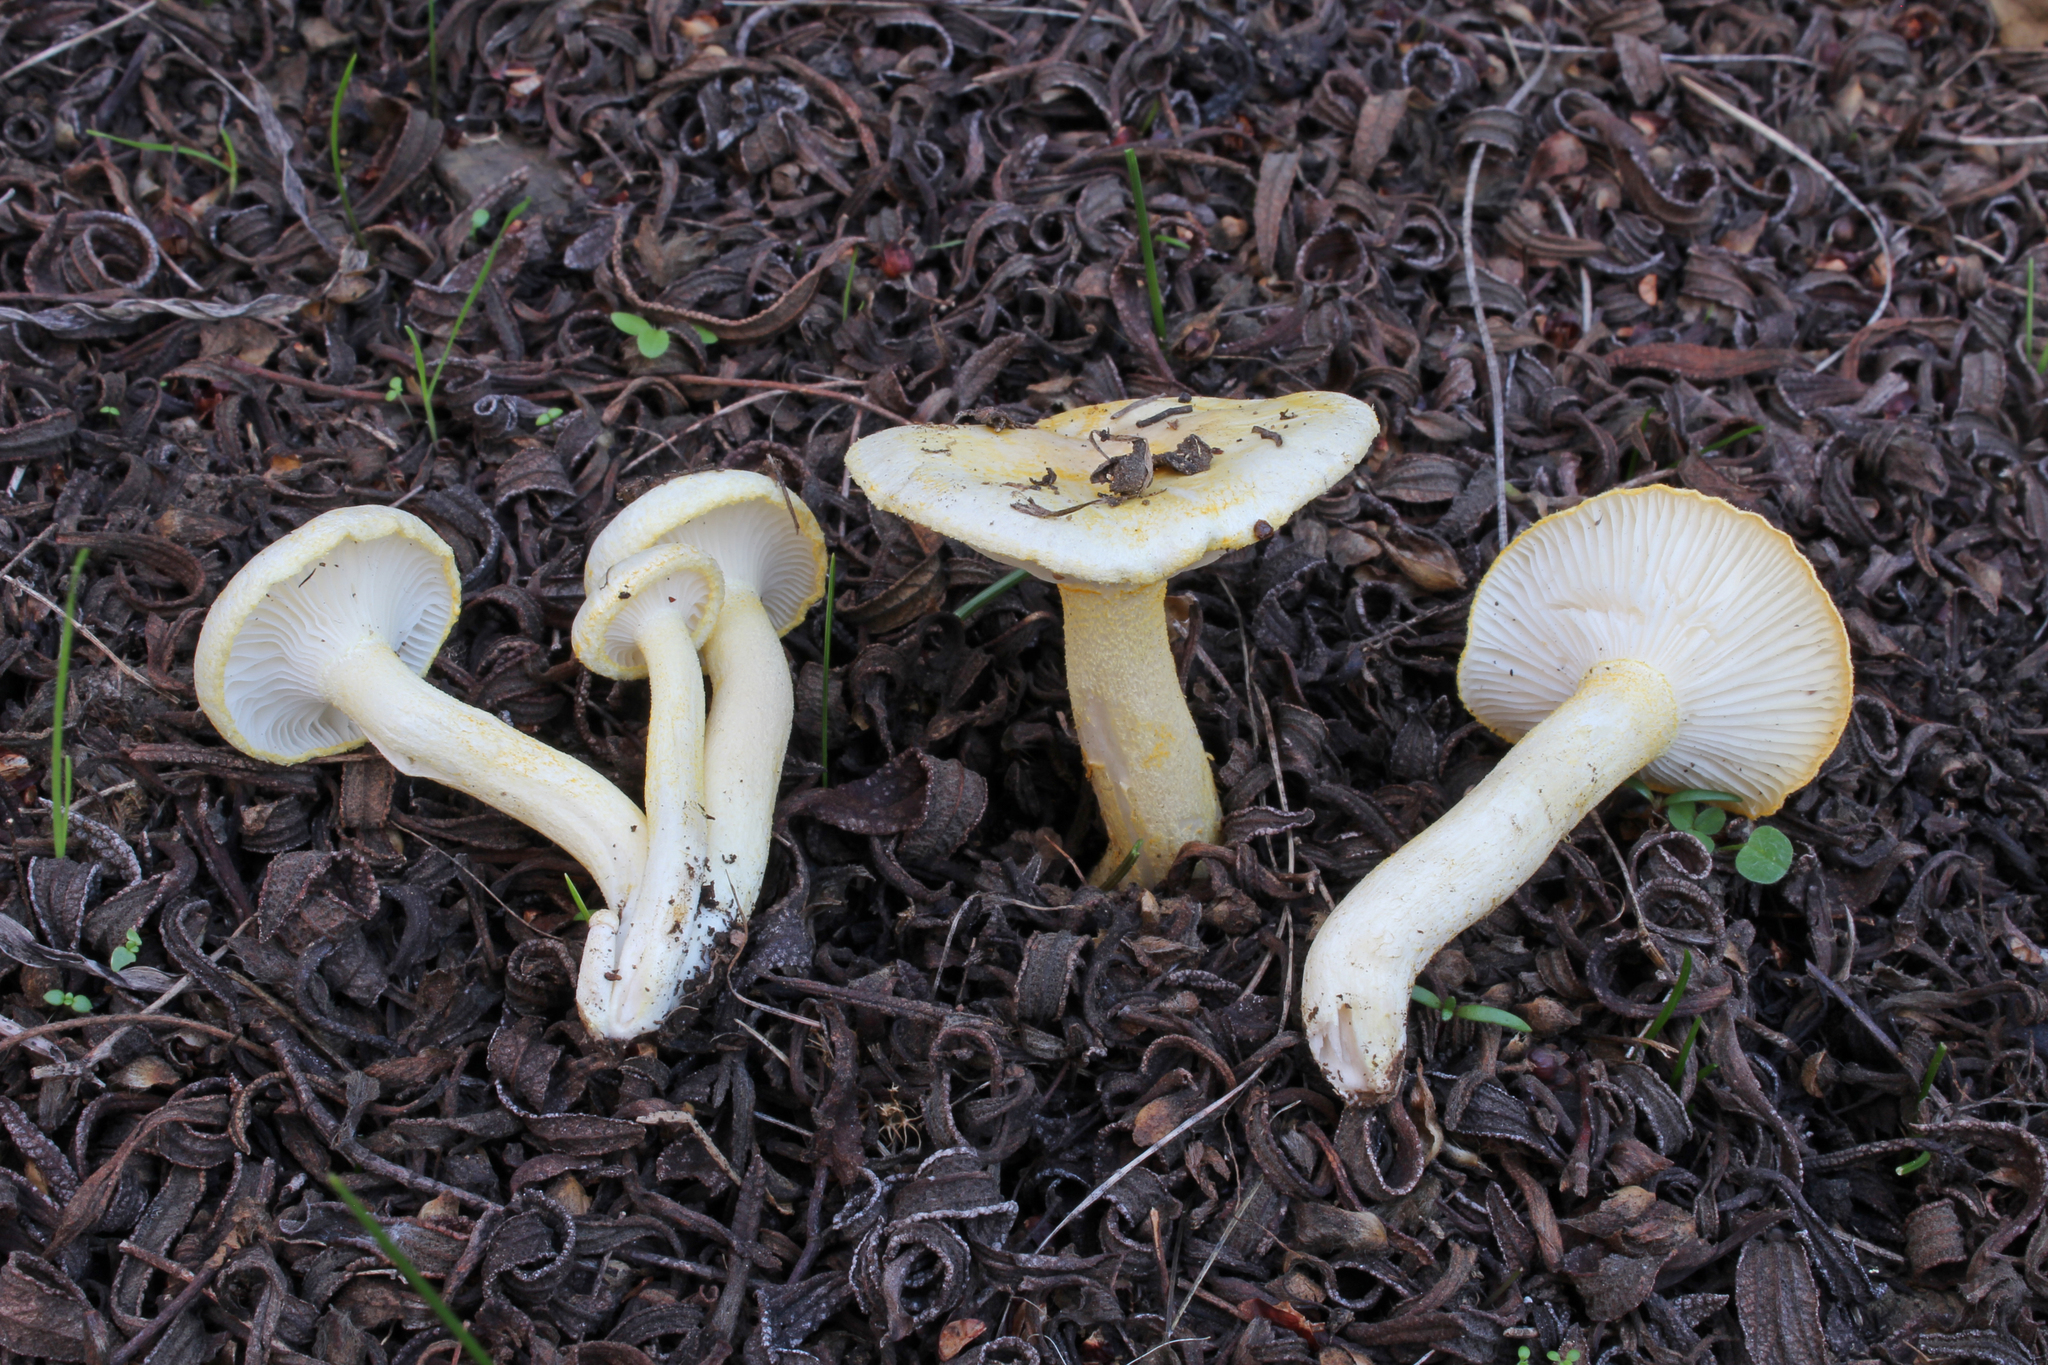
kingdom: Fungi
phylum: Basidiomycota
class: Agaricomycetes
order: Agaricales
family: Hygrophoraceae
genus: Hygrophorus
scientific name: Hygrophorus chrysodon
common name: Gold flecked woodwax
